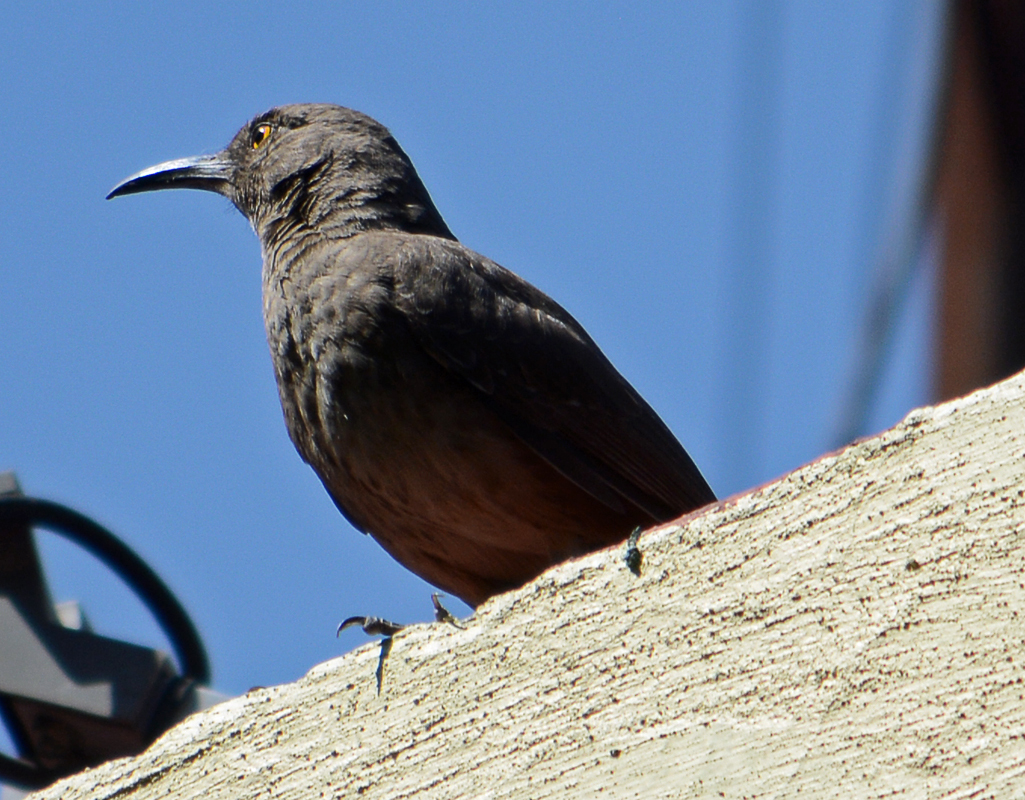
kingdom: Animalia
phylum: Chordata
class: Aves
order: Passeriformes
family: Mimidae
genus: Toxostoma
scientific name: Toxostoma curvirostre
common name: Curve-billed thrasher
